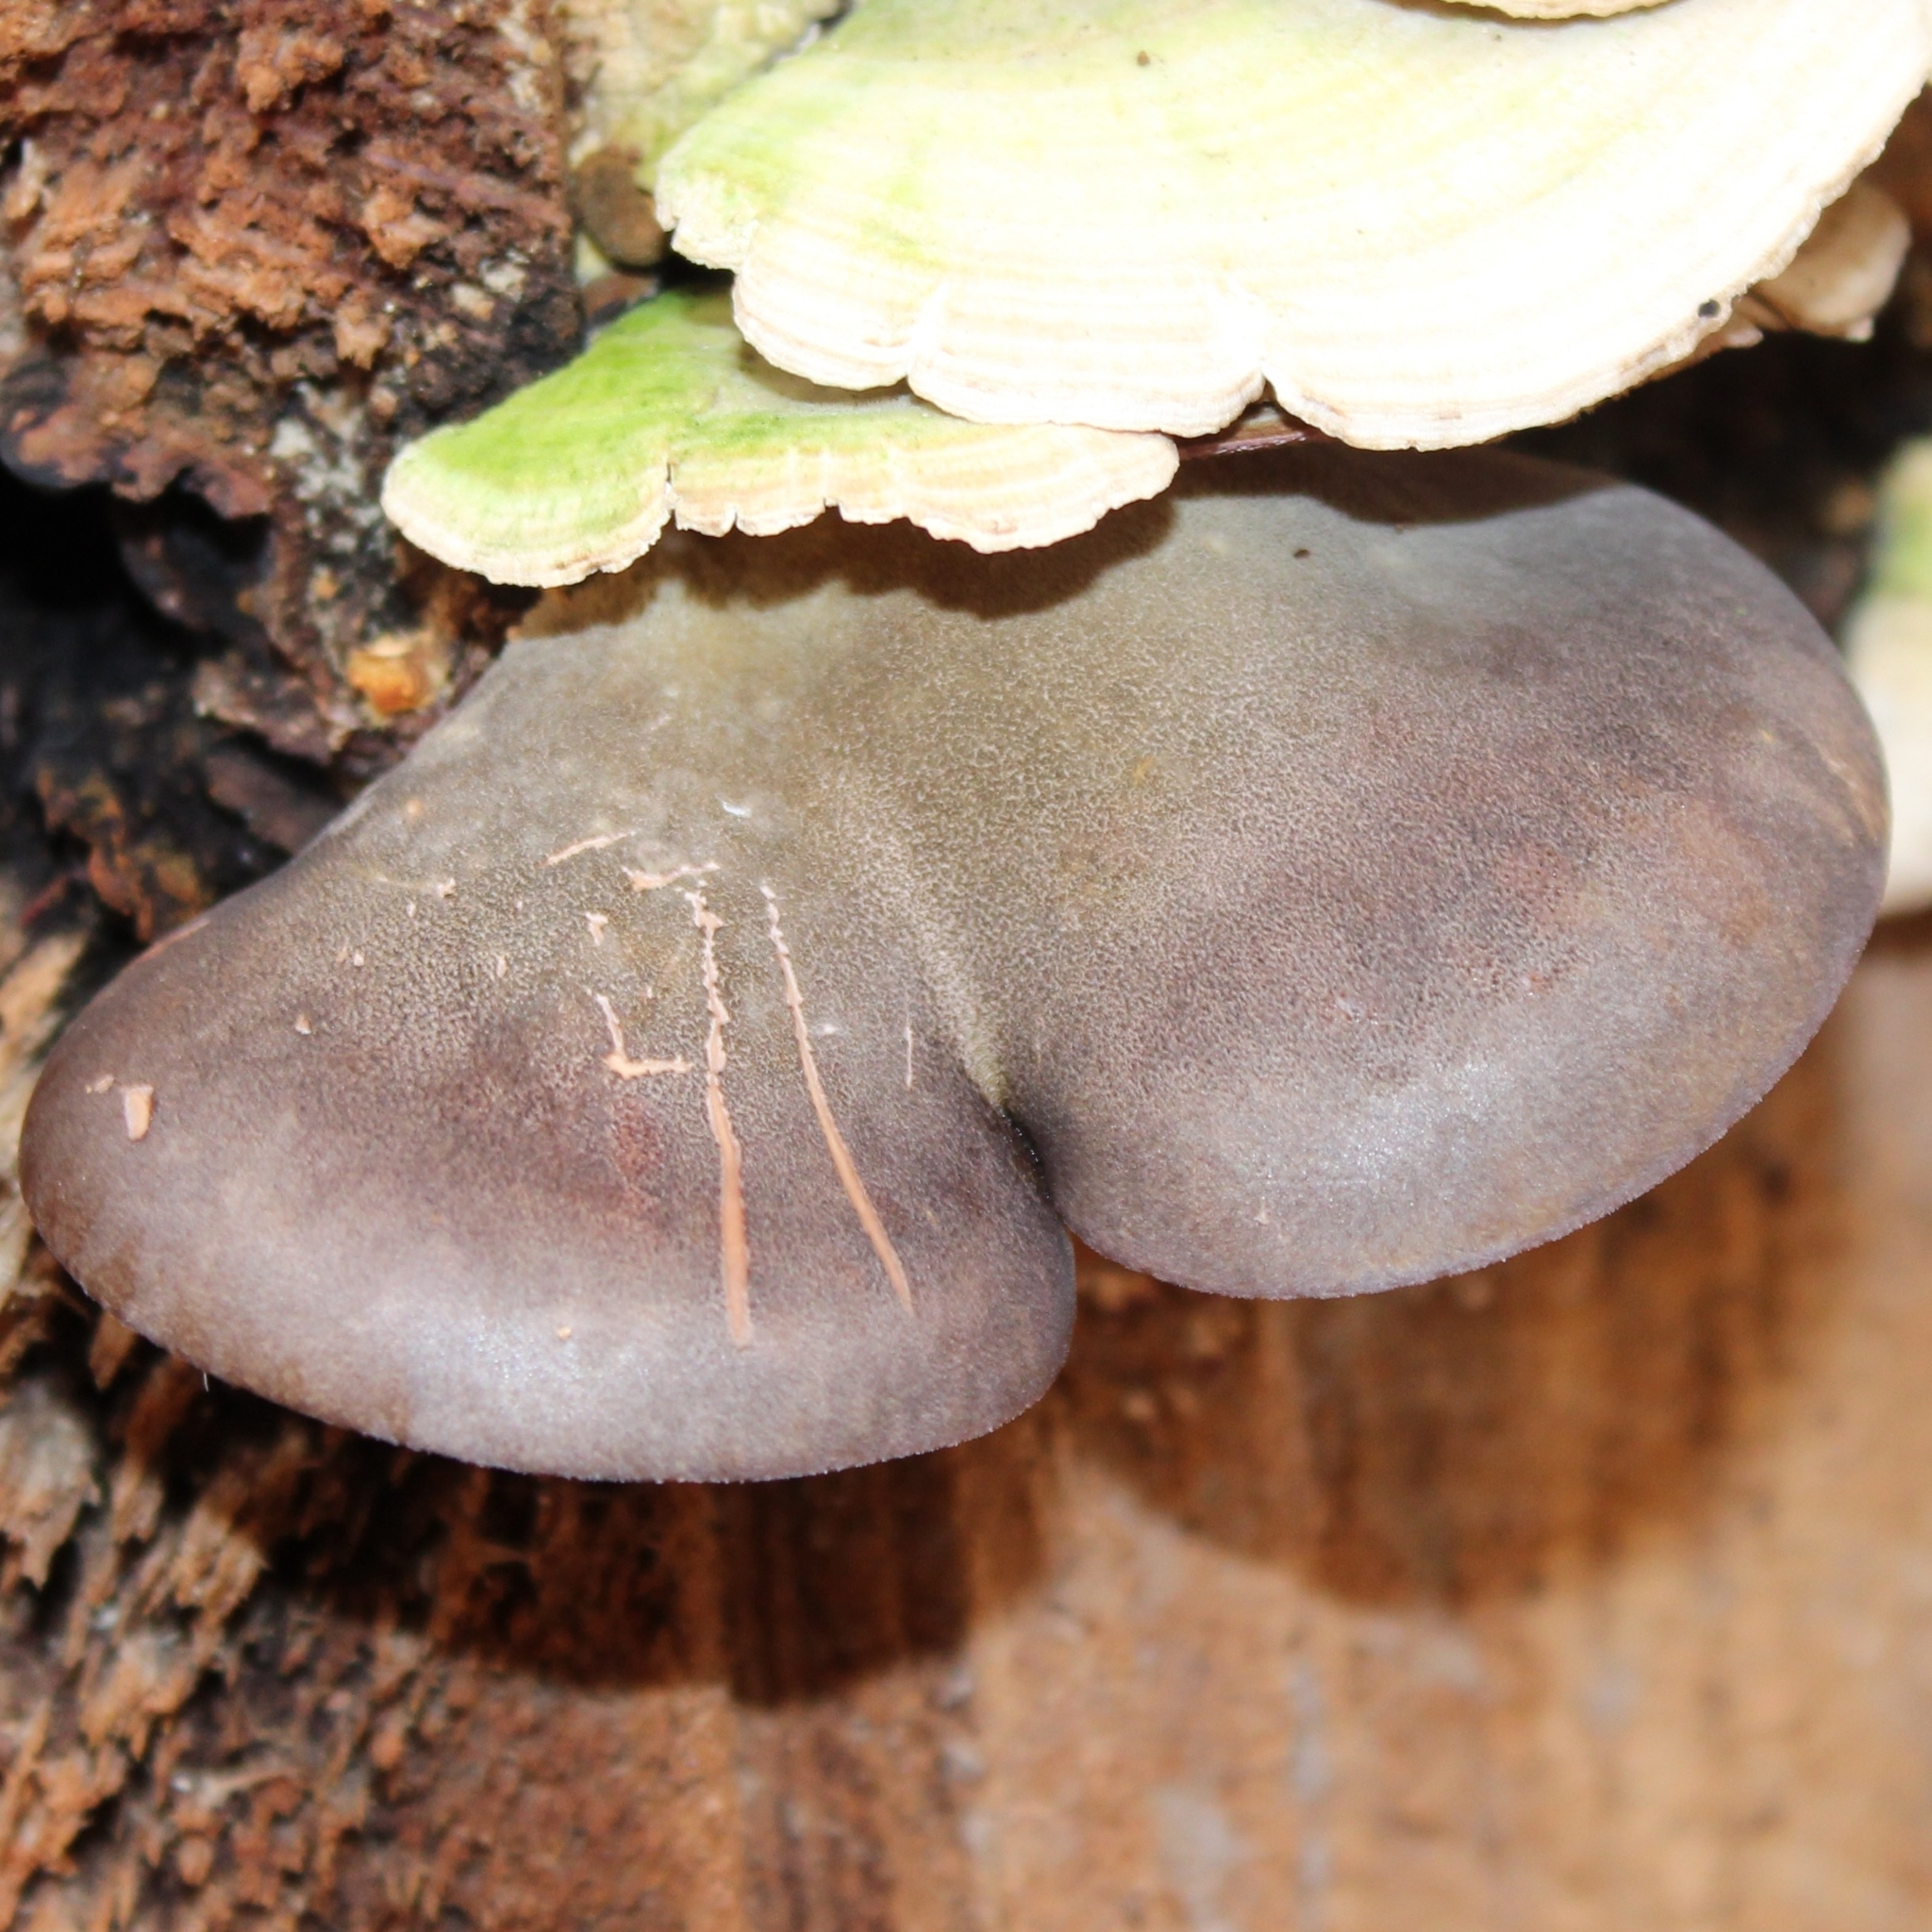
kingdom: Fungi
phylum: Basidiomycota
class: Agaricomycetes
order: Agaricales
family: Sarcomyxaceae
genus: Sarcomyxa
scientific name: Sarcomyxa serotina
